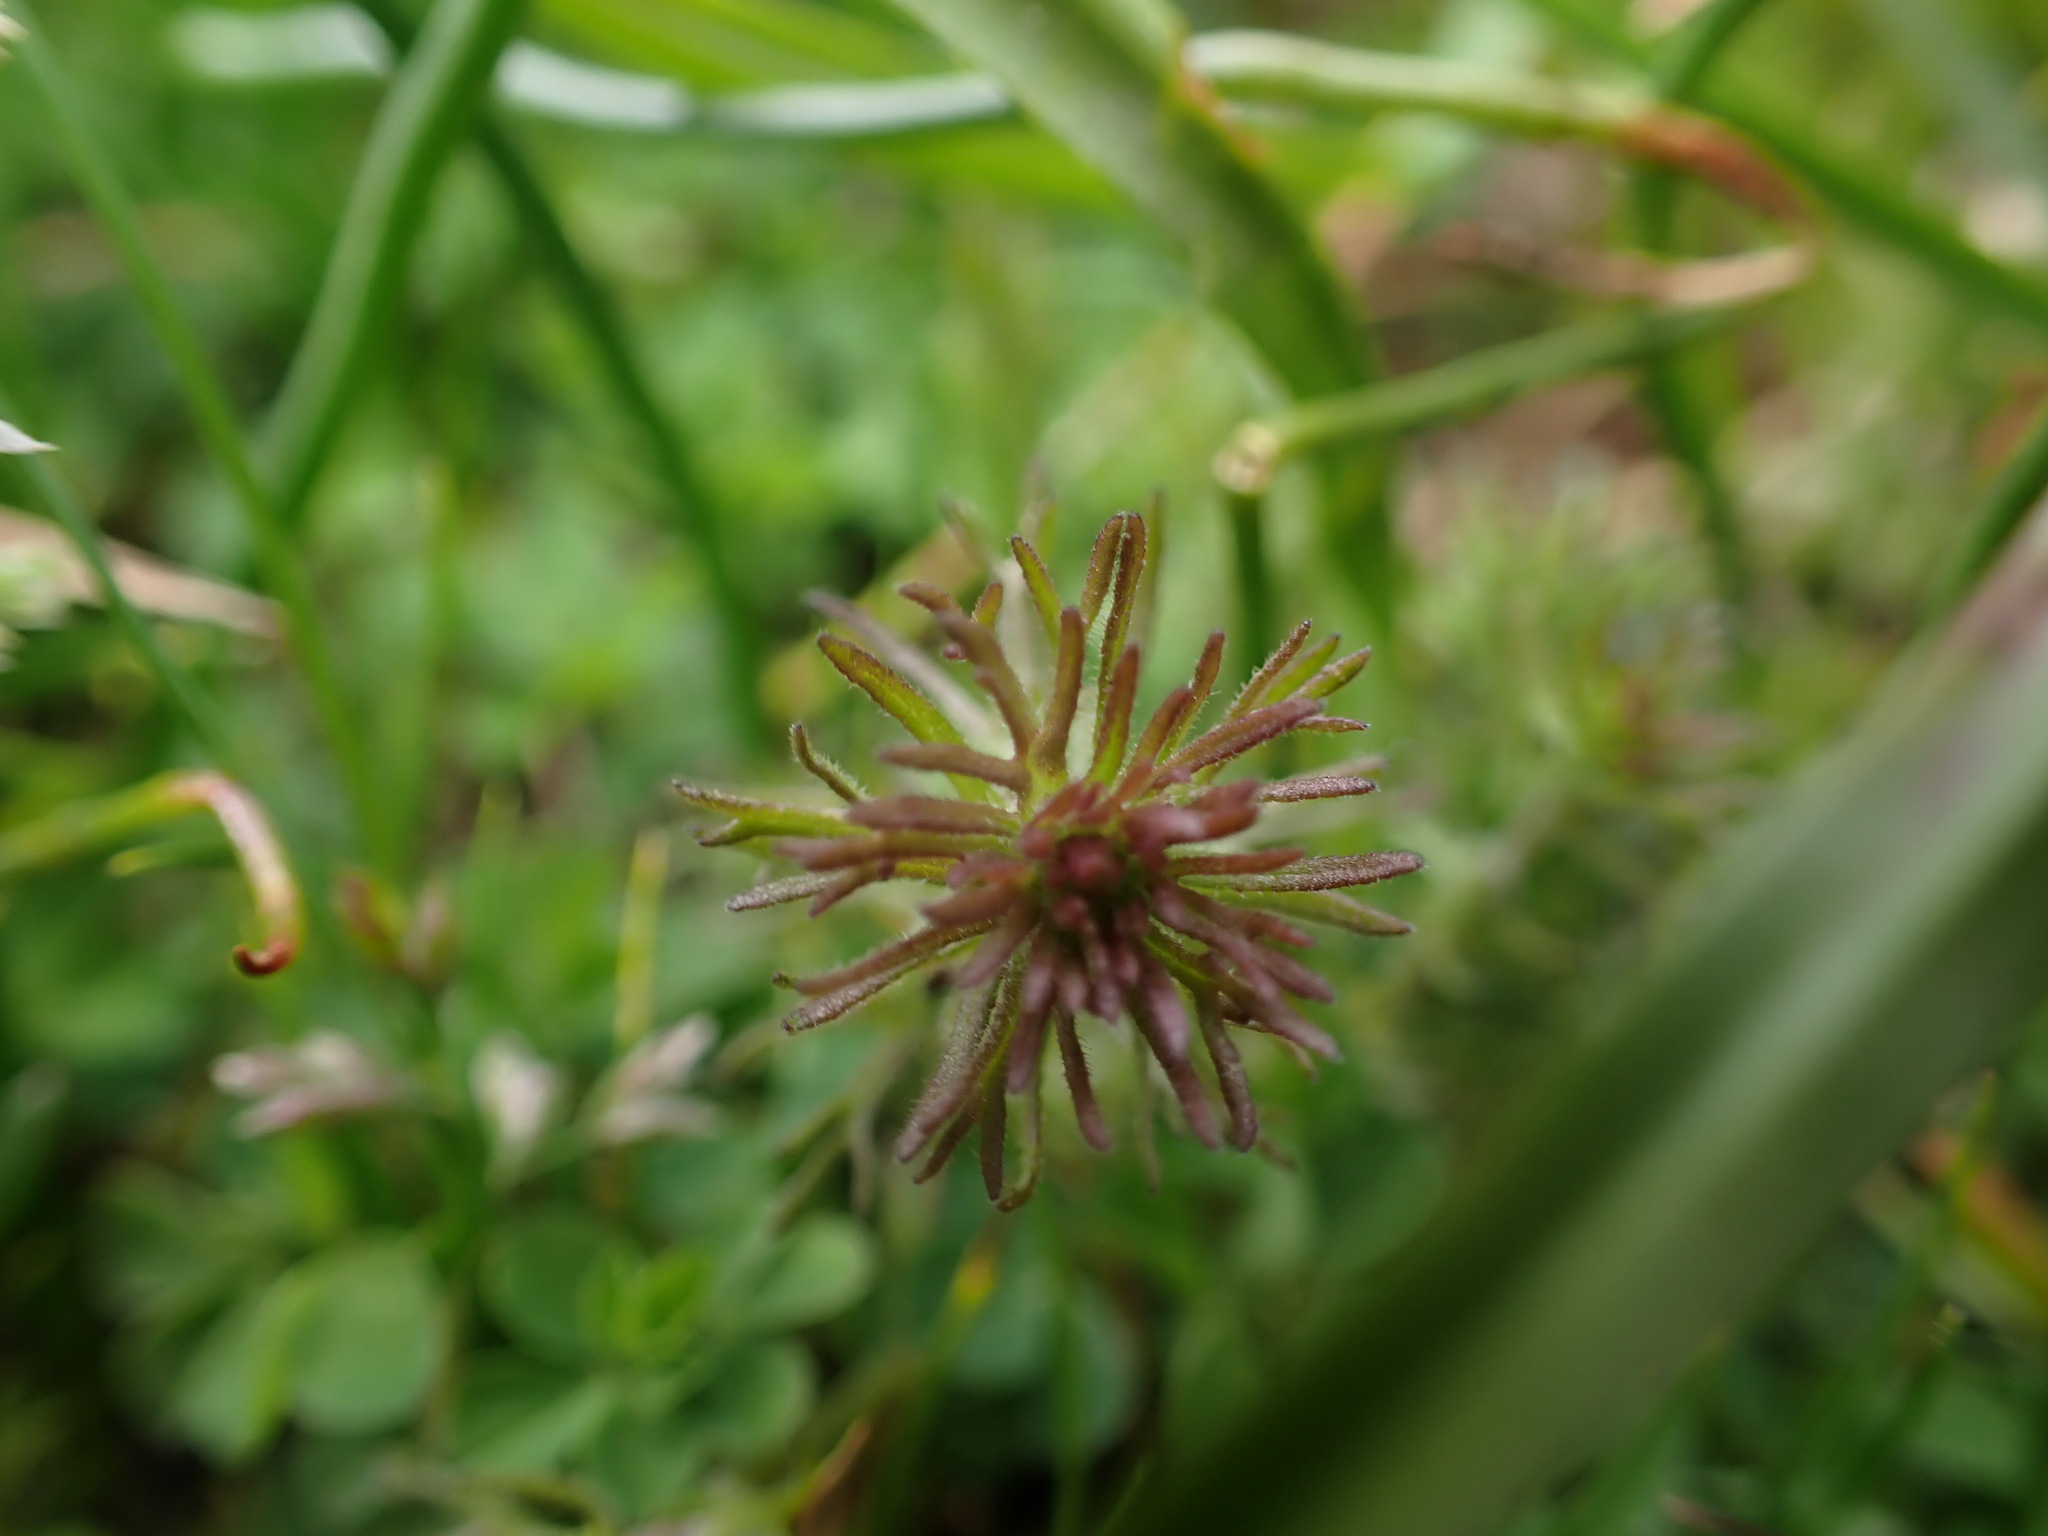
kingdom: Plantae
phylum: Tracheophyta
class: Magnoliopsida
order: Lamiales
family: Orobanchaceae
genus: Triphysaria
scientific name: Triphysaria pusilla
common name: Dwarf false owl-clover
